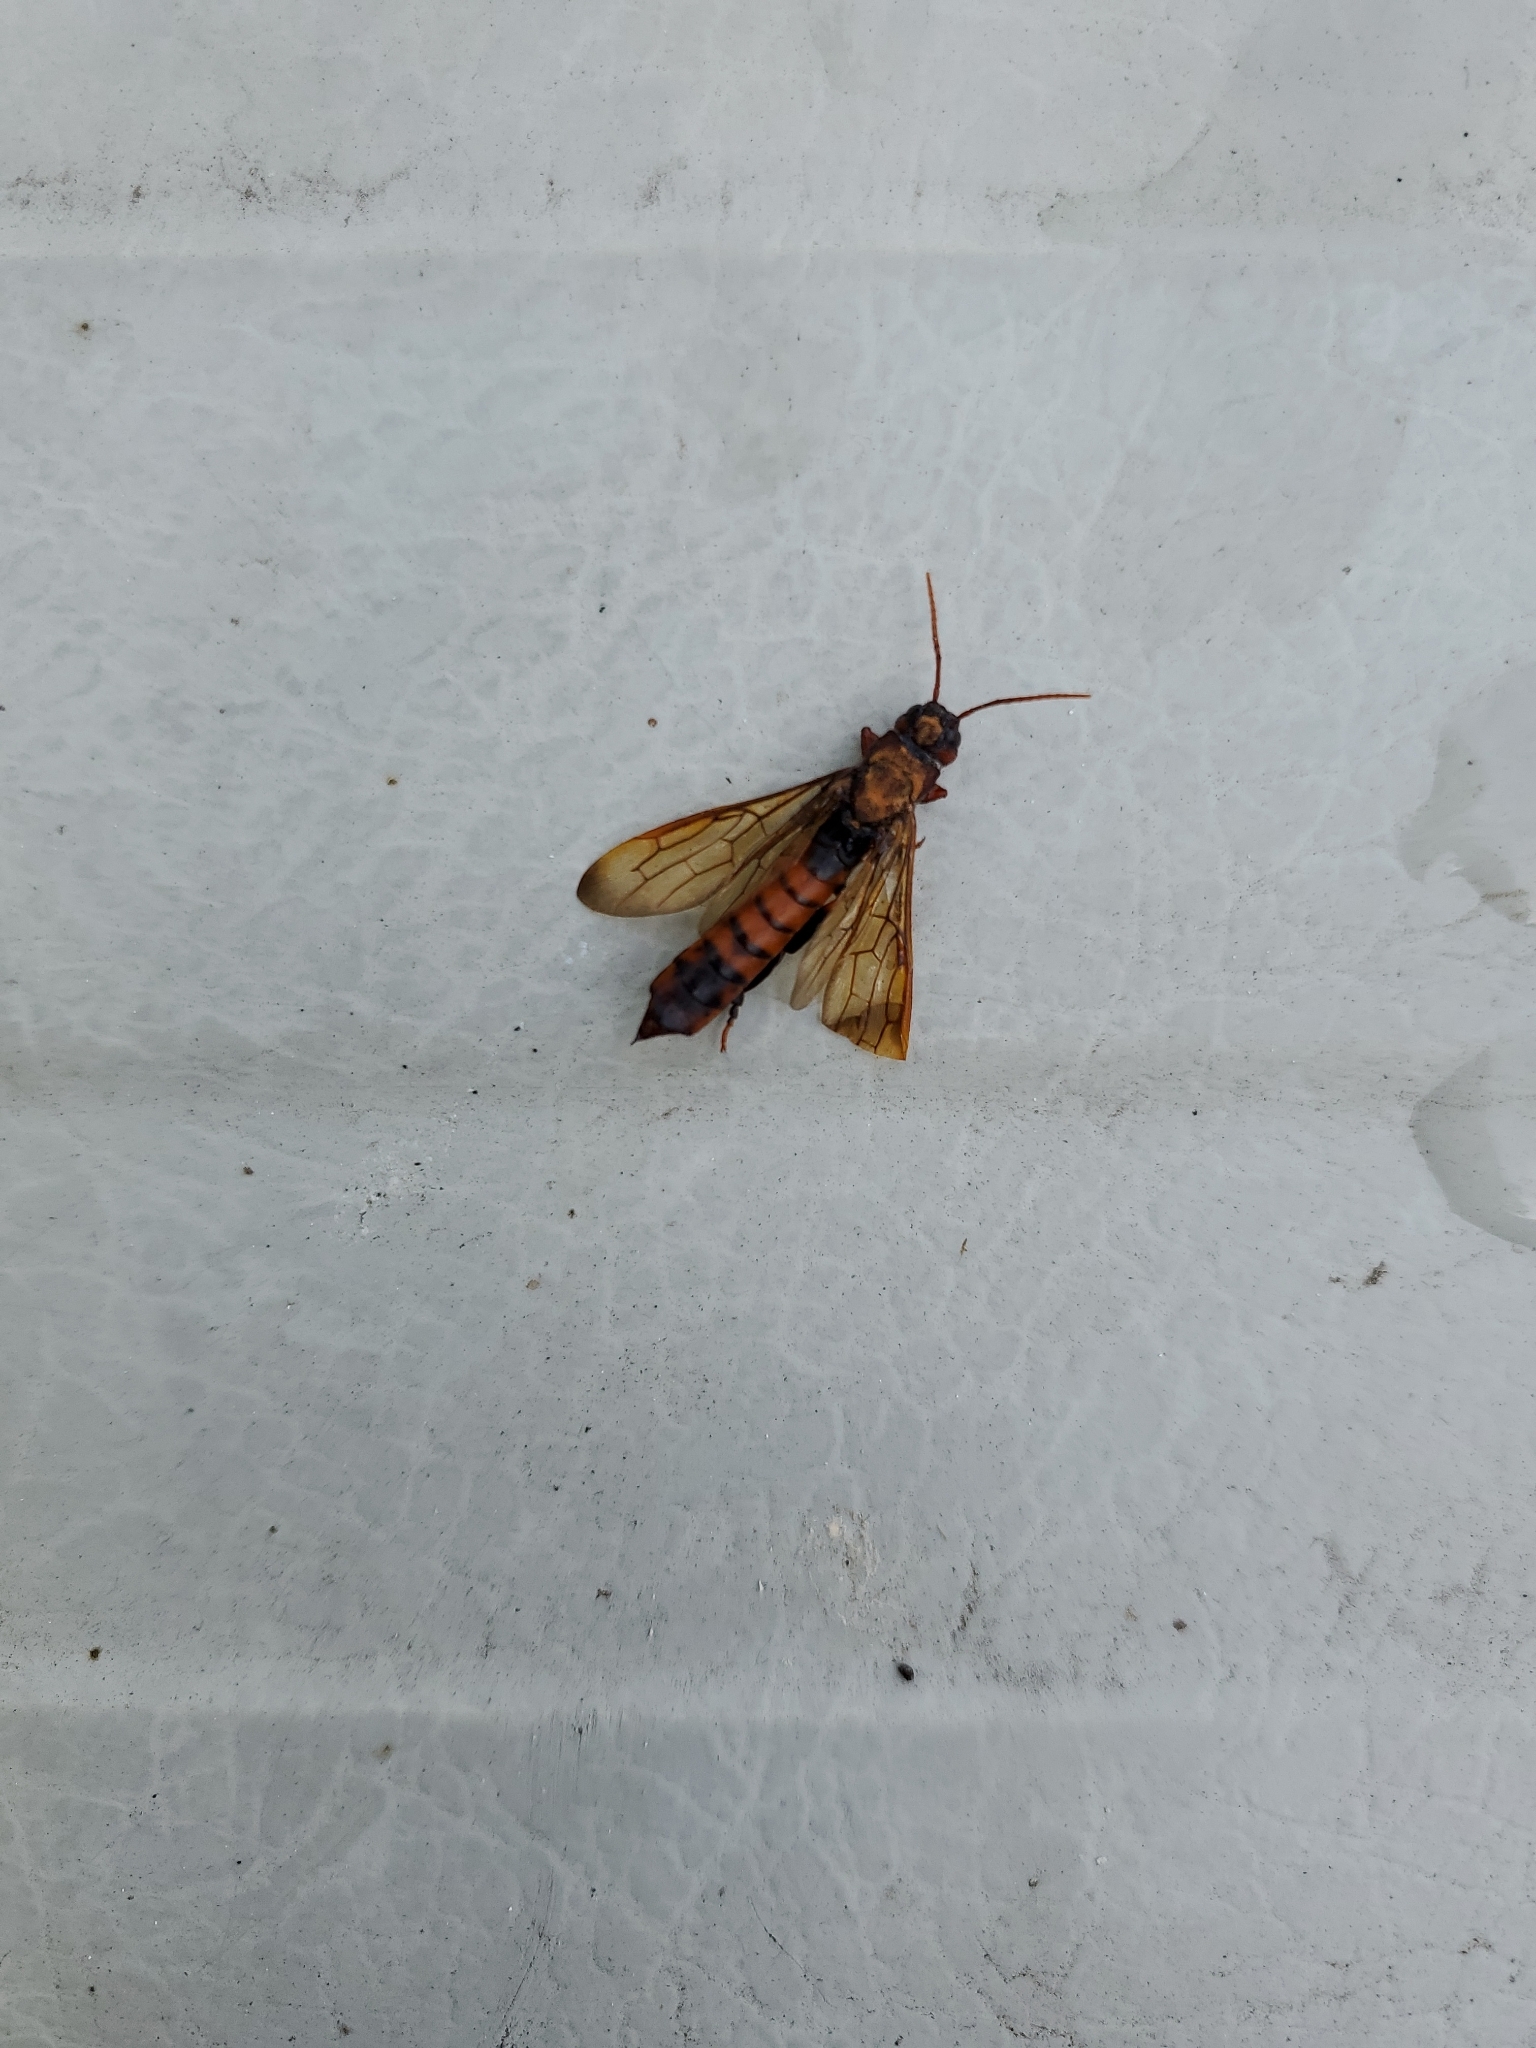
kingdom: Animalia
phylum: Arthropoda
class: Insecta
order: Hymenoptera
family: Siricidae
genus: Tremex
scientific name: Tremex columba
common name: Wasp
